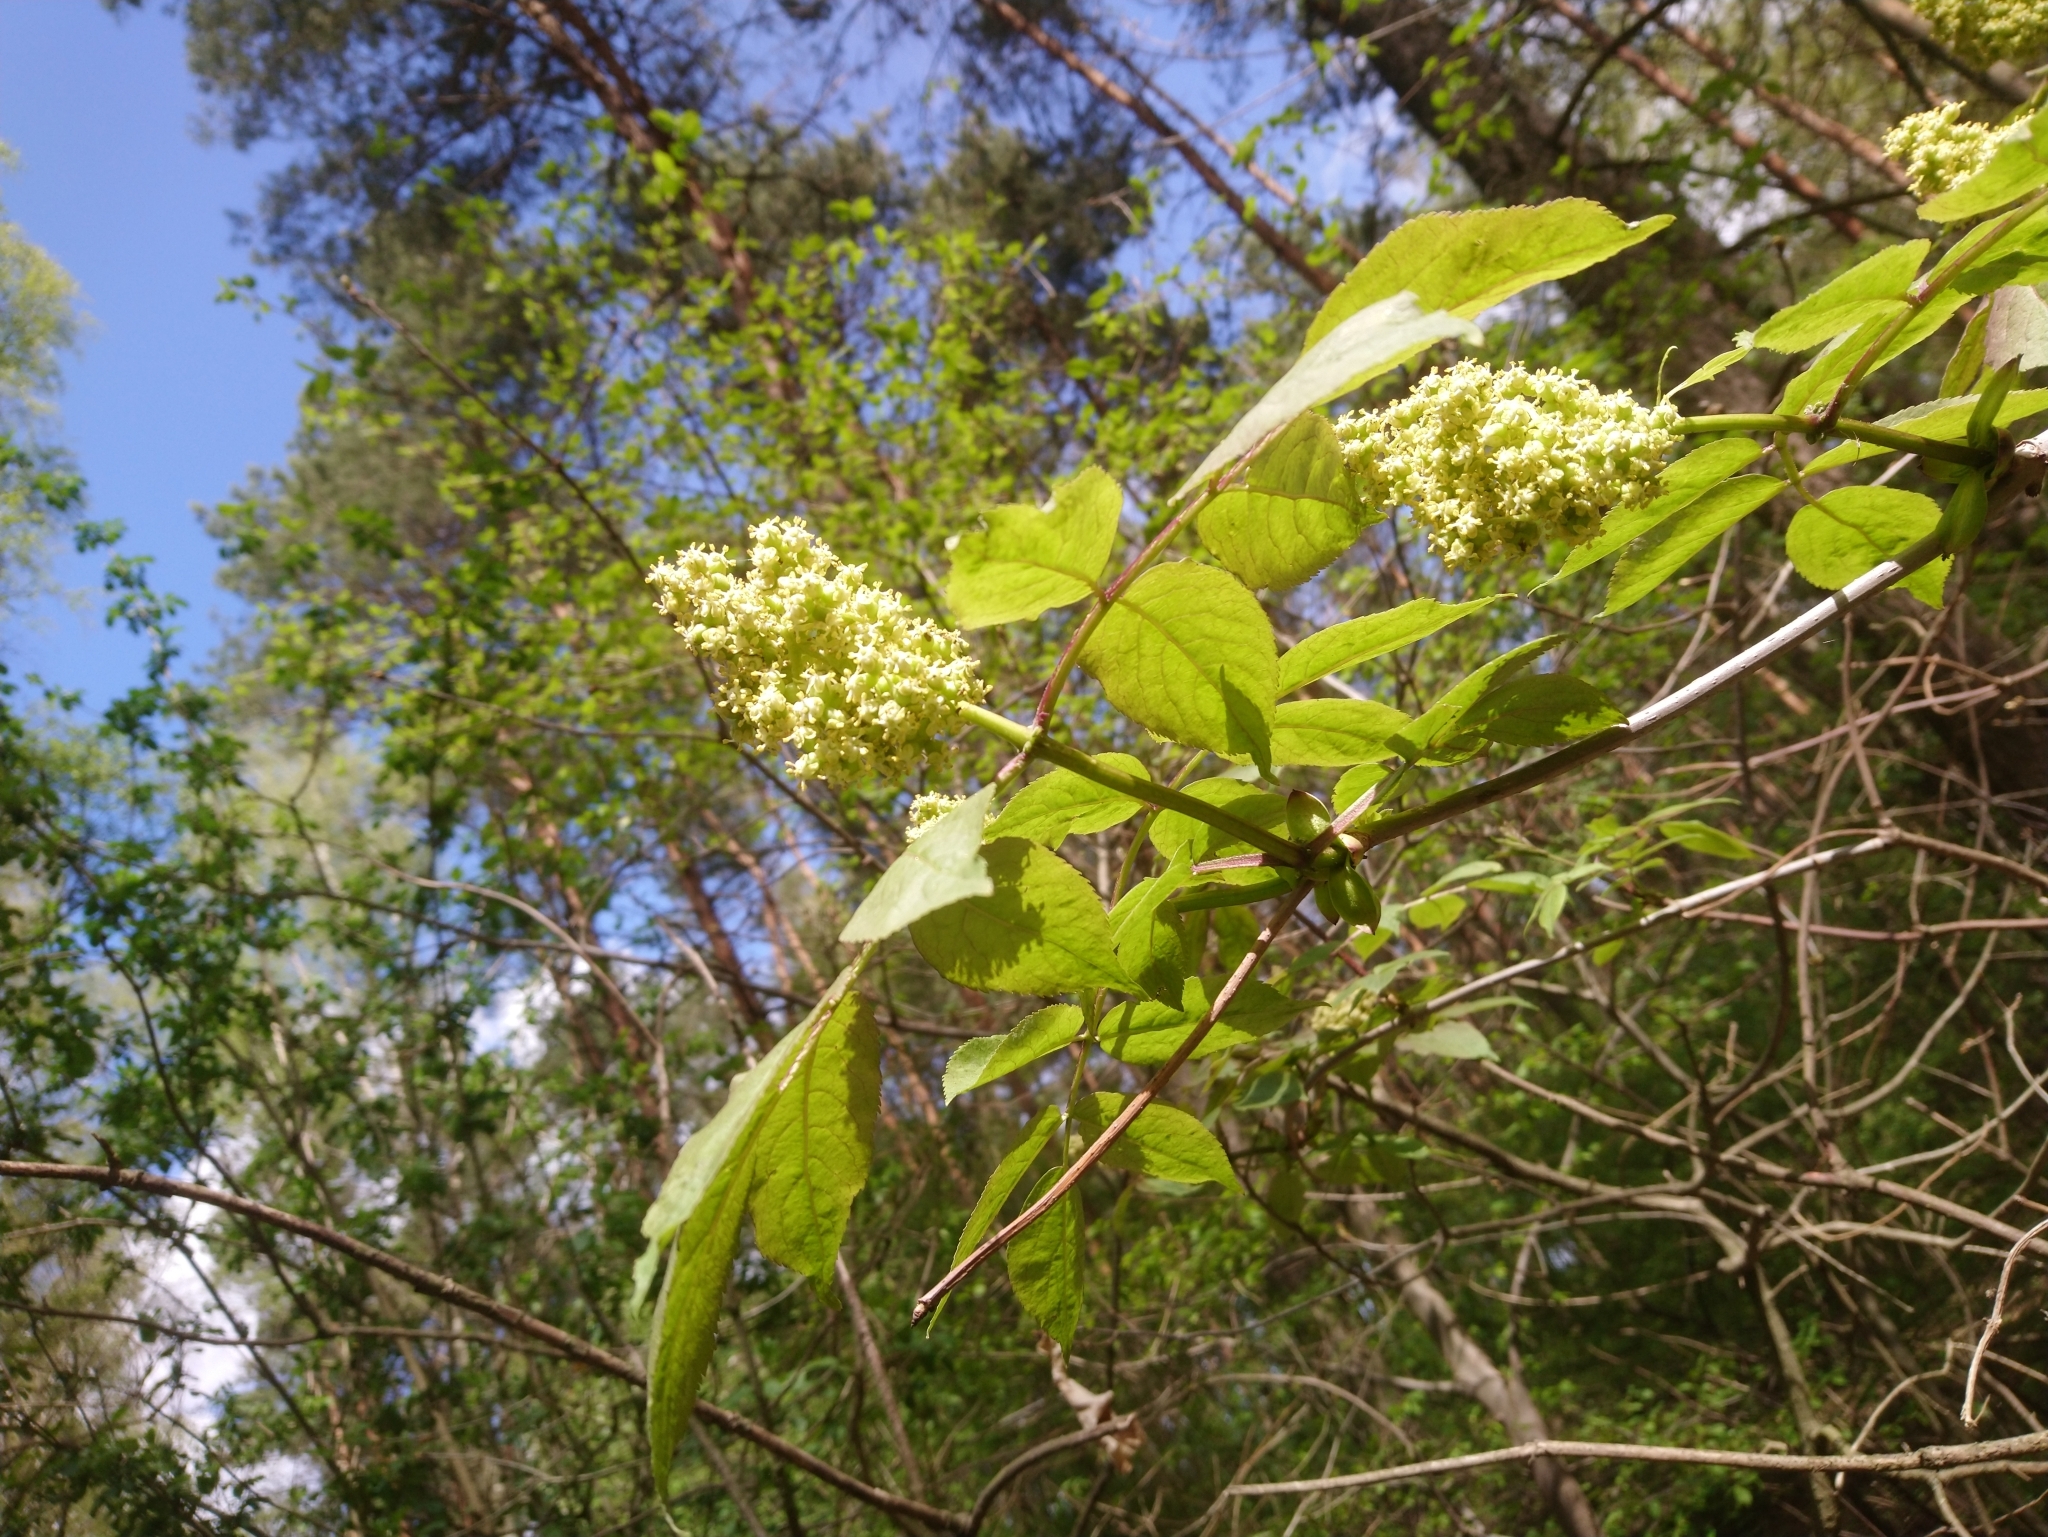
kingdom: Plantae
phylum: Tracheophyta
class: Magnoliopsida
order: Dipsacales
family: Viburnaceae
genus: Sambucus
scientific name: Sambucus racemosa
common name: Red-berried elder
